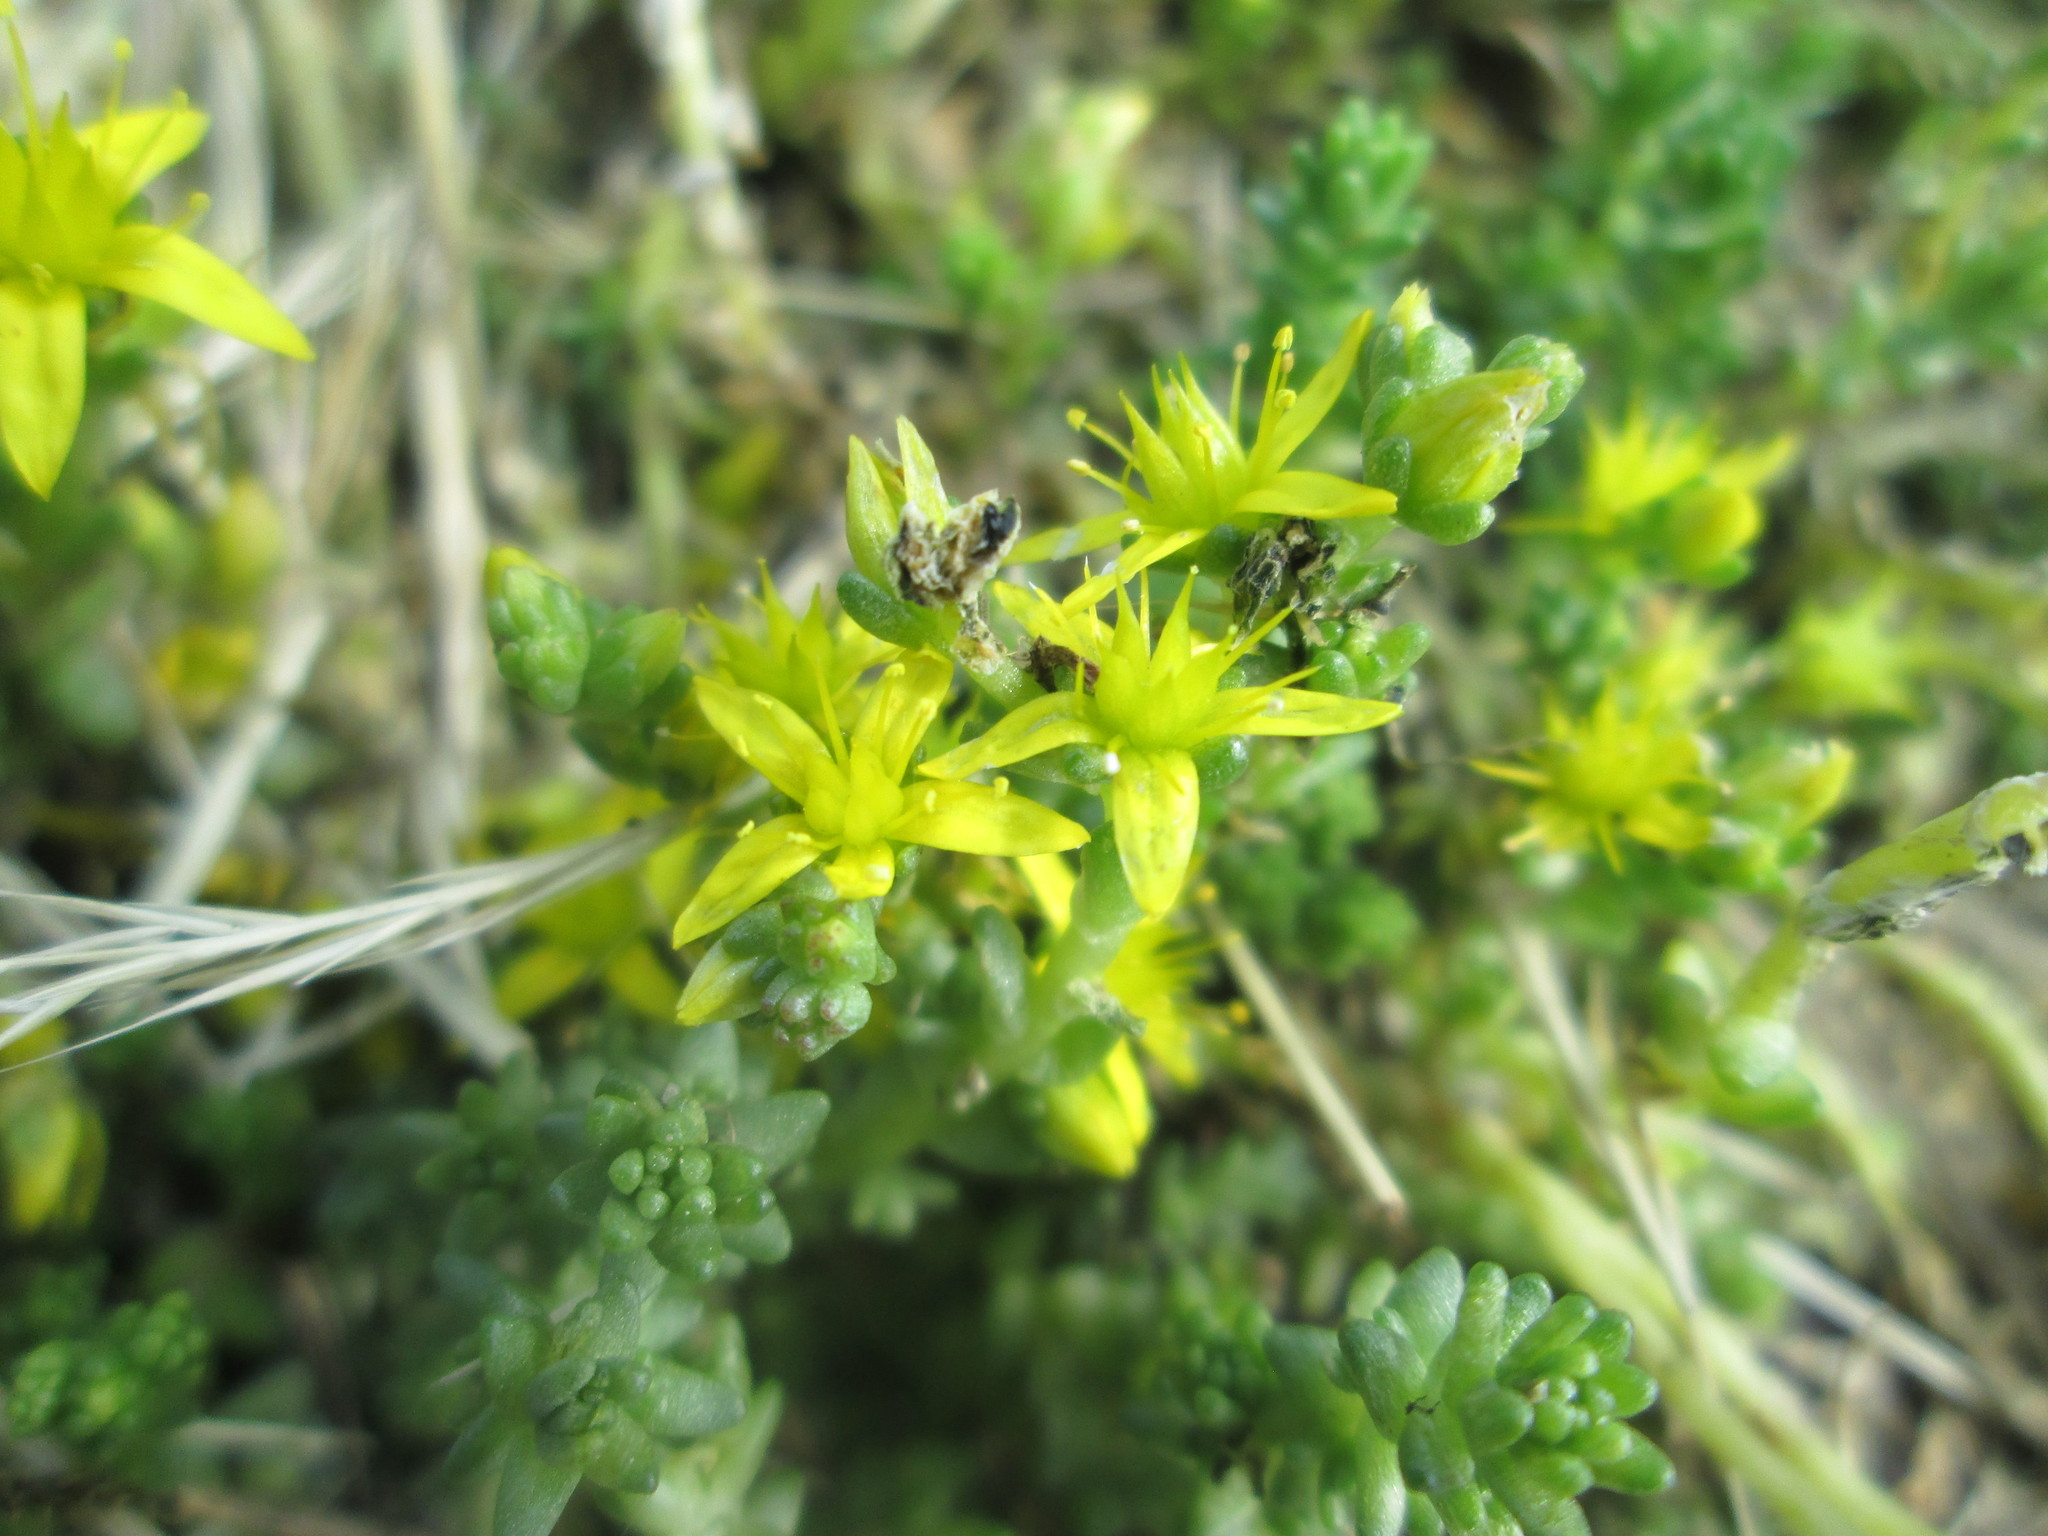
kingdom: Plantae
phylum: Tracheophyta
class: Magnoliopsida
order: Saxifragales
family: Crassulaceae
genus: Sedum
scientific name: Sedum acre
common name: Biting stonecrop
